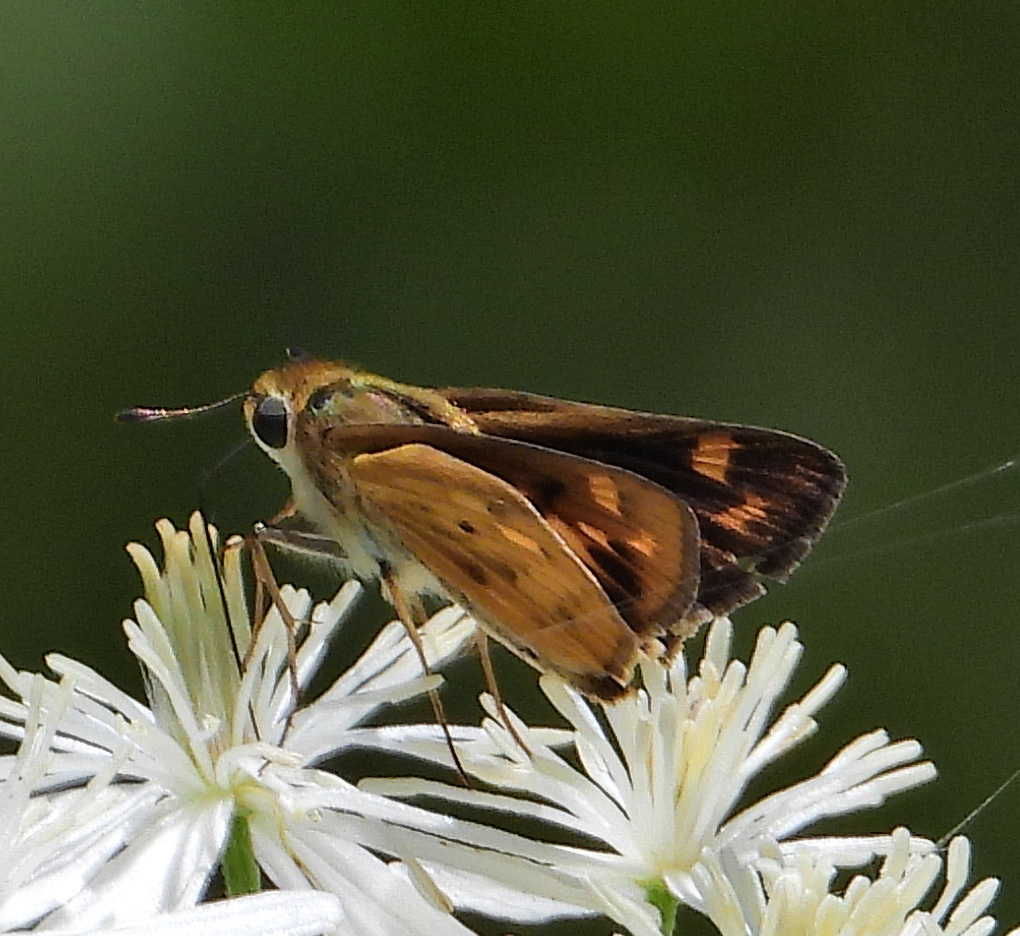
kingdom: Animalia
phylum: Arthropoda
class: Insecta
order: Lepidoptera
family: Hesperiidae
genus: Hylephila
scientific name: Hylephila phyleus
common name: Fiery skipper
